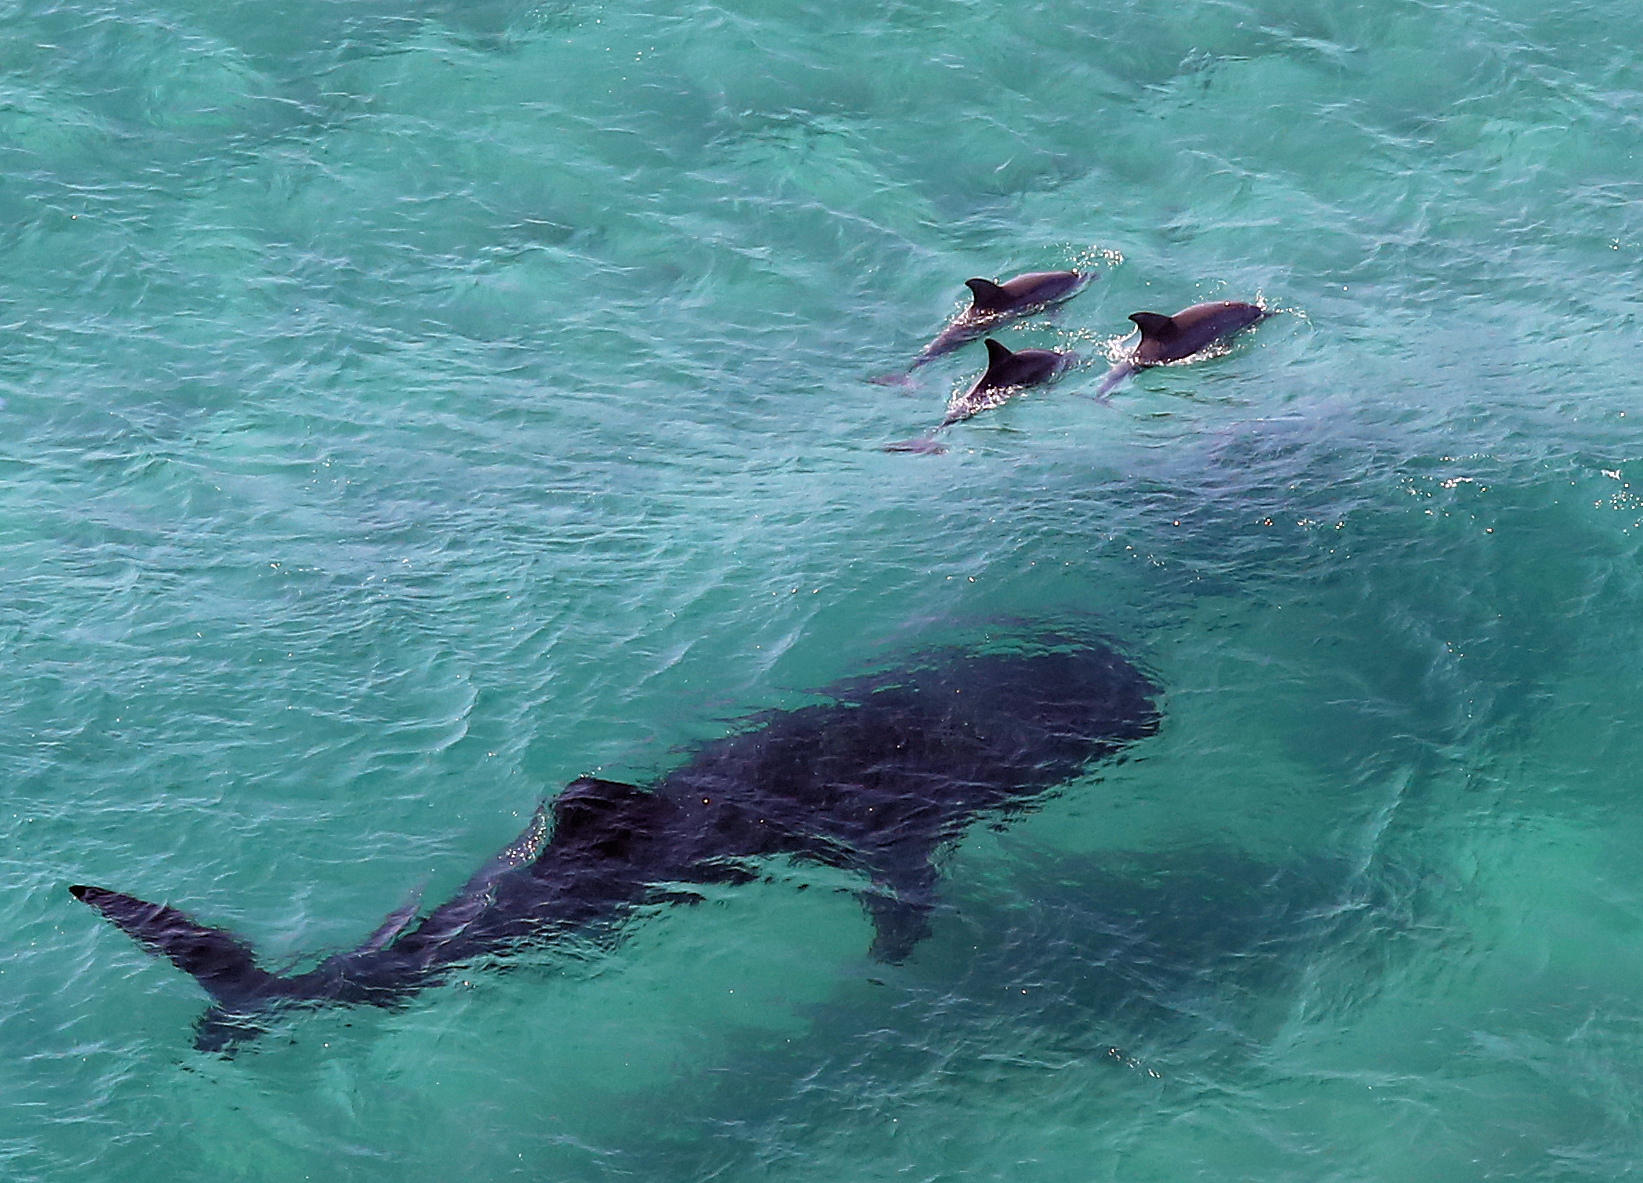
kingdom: Animalia
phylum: Chordata
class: Elasmobranchii
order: Orectolobiformes
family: Rhincodontidae
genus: Rhincodon
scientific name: Rhincodon typus
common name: Whale shark
